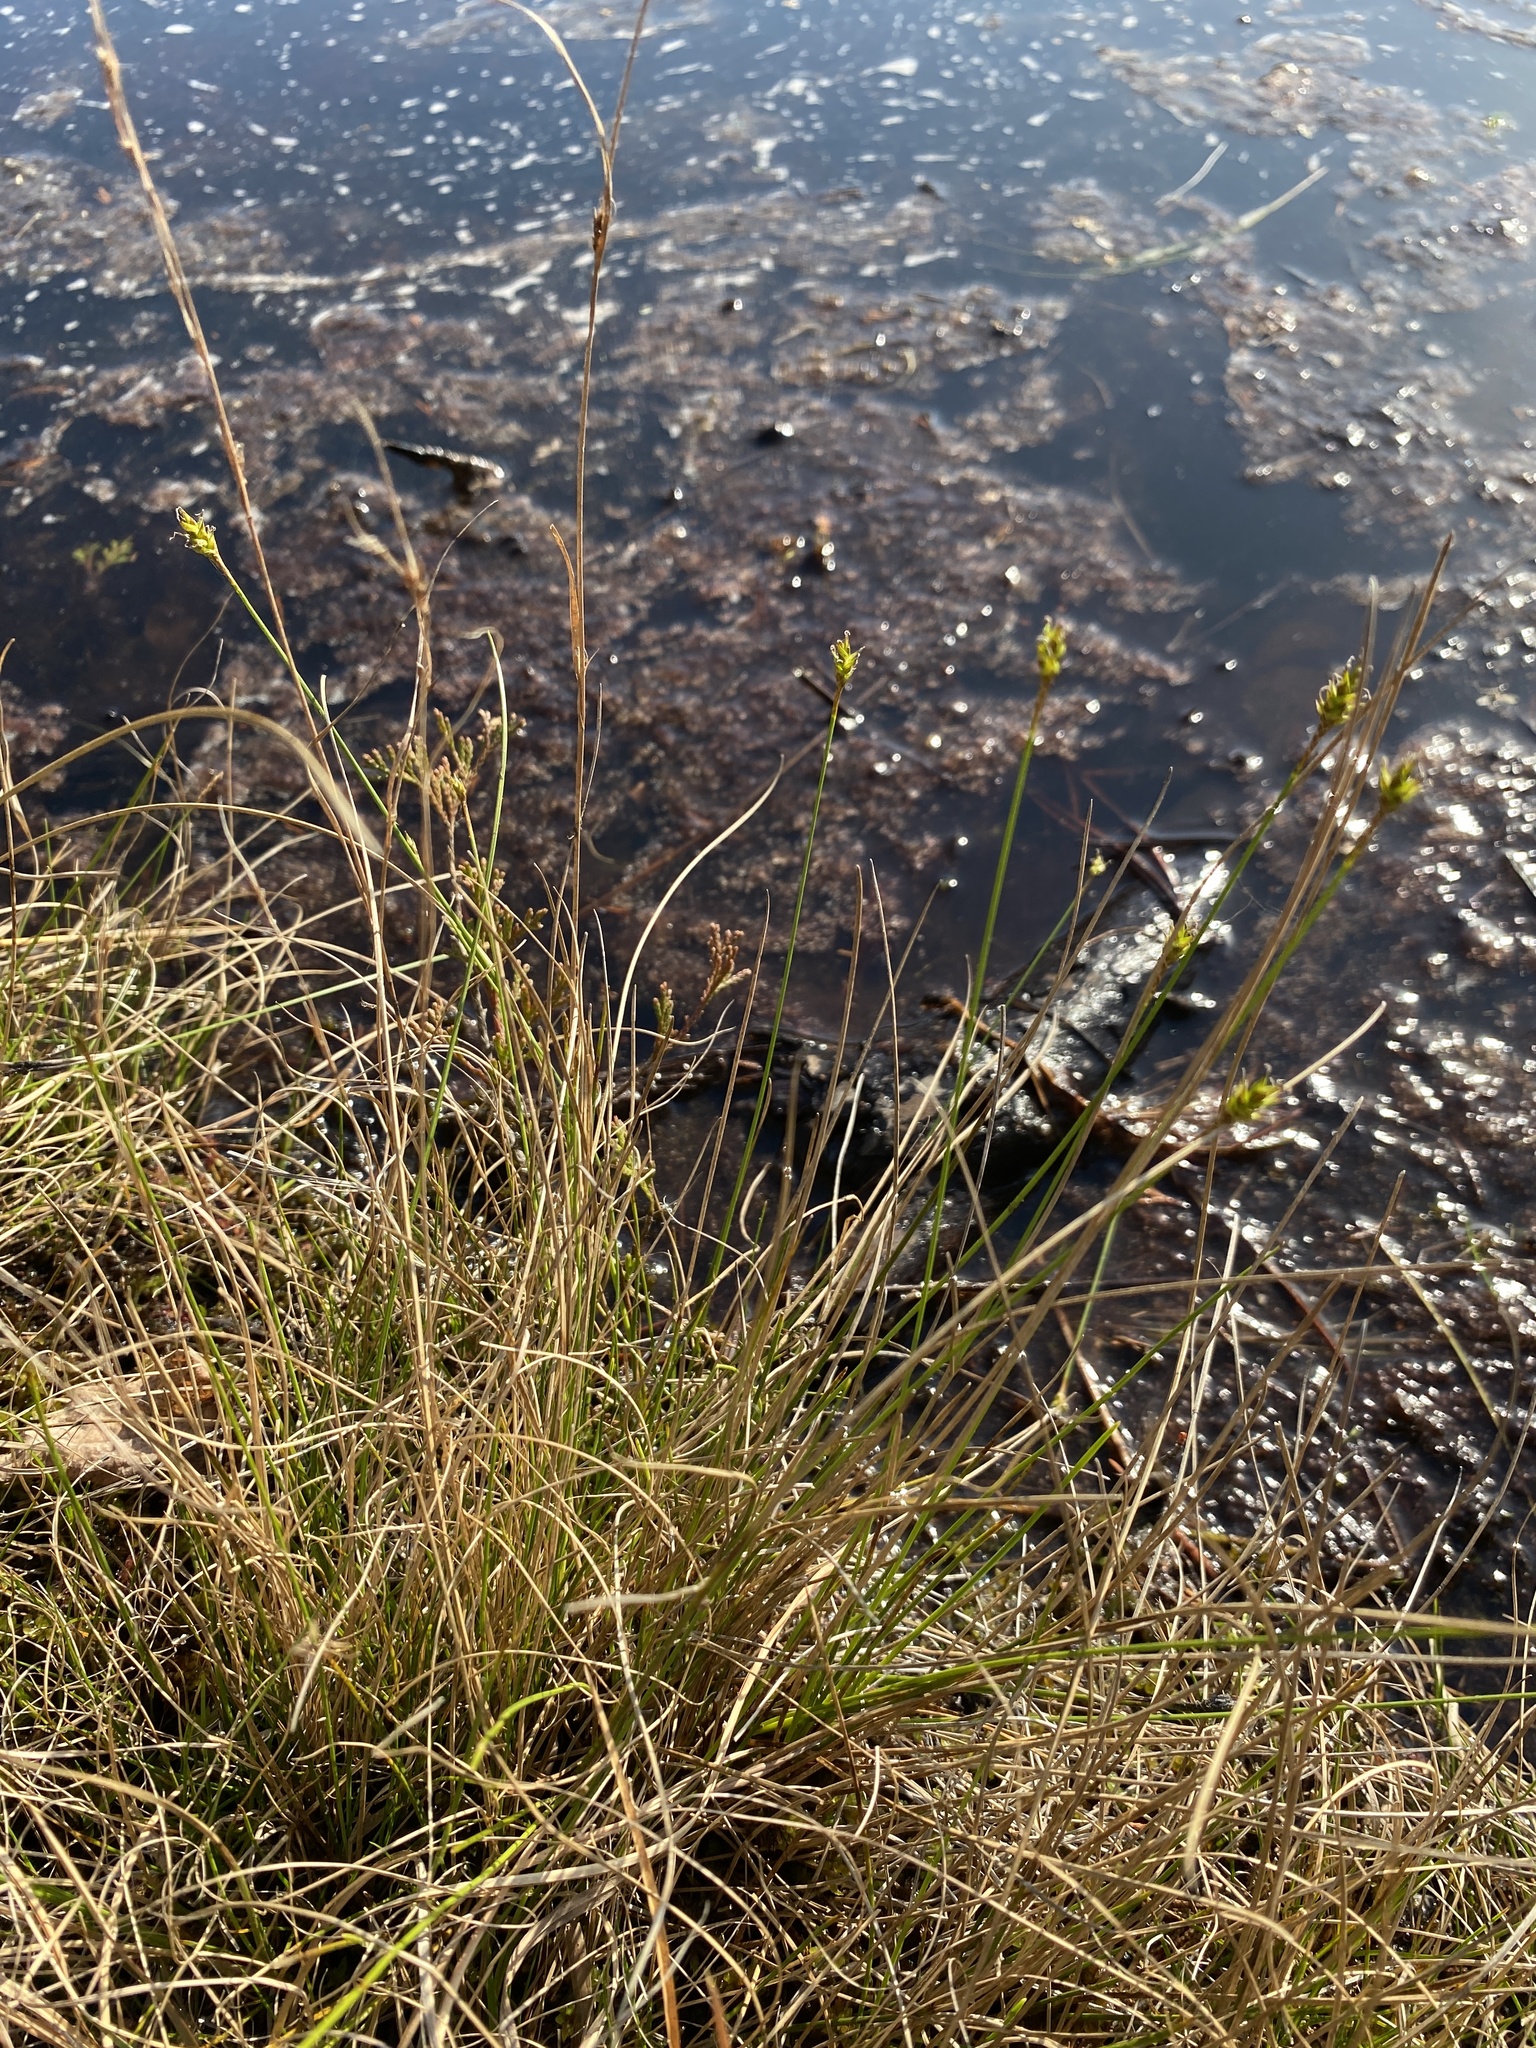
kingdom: Plantae
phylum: Tracheophyta
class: Liliopsida
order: Poales
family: Cyperaceae
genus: Carex
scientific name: Carex exilis
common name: Coastal sedge
